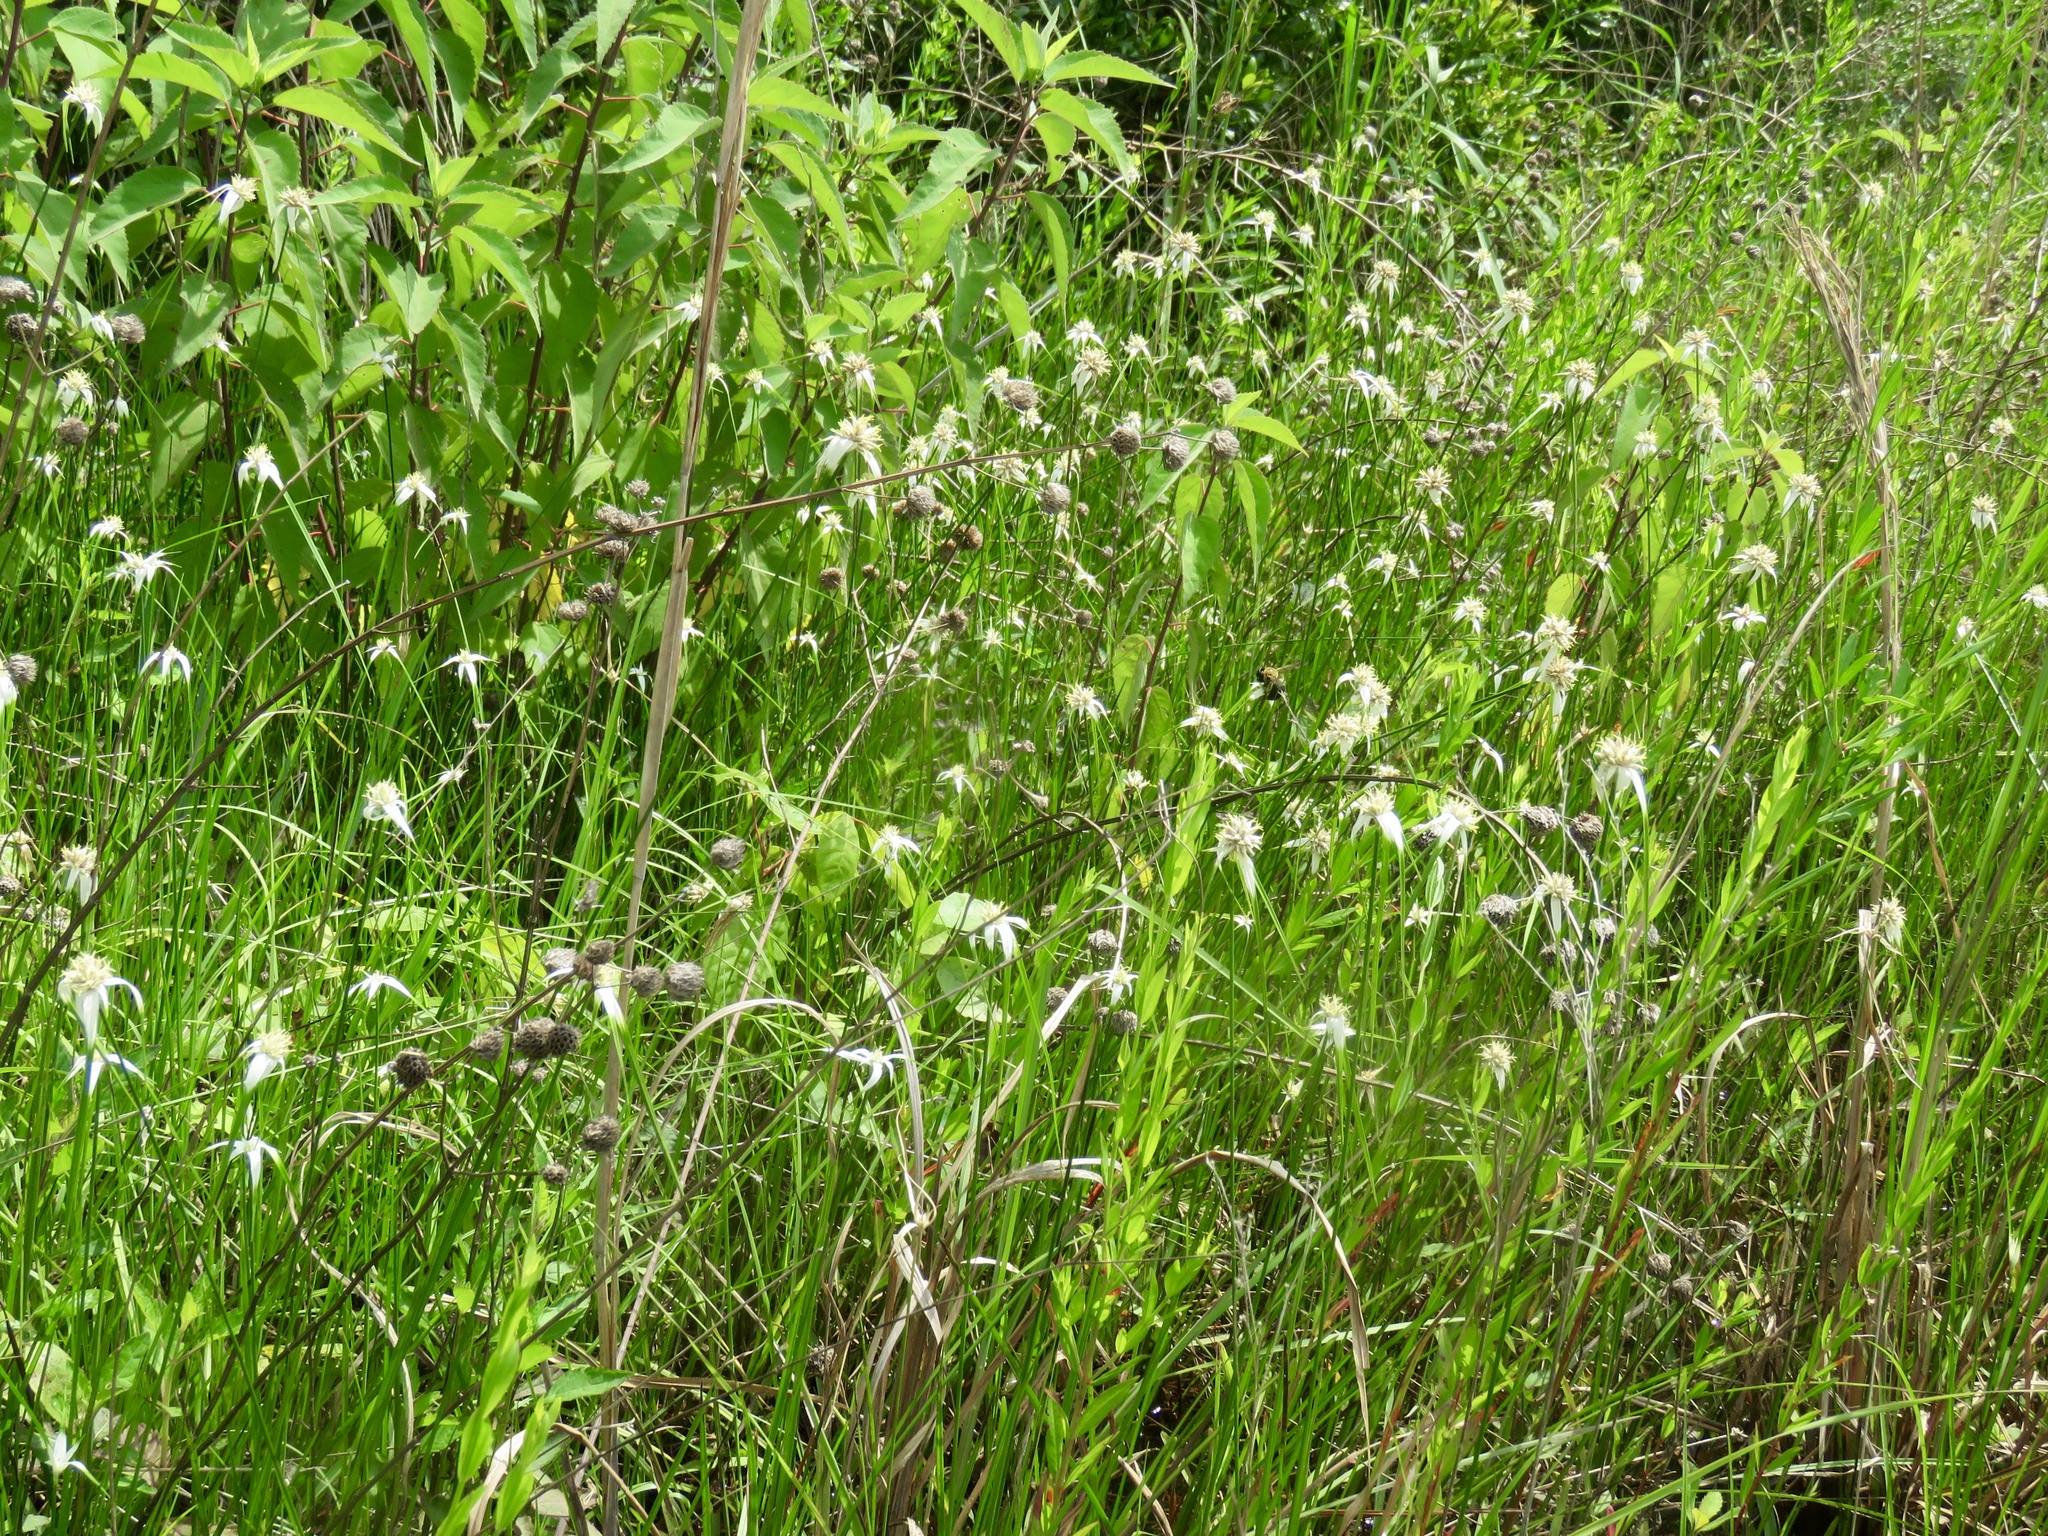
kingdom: Plantae
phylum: Tracheophyta
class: Liliopsida
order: Poales
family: Cyperaceae
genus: Rhynchospora
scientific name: Rhynchospora colorata
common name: Star sedge
